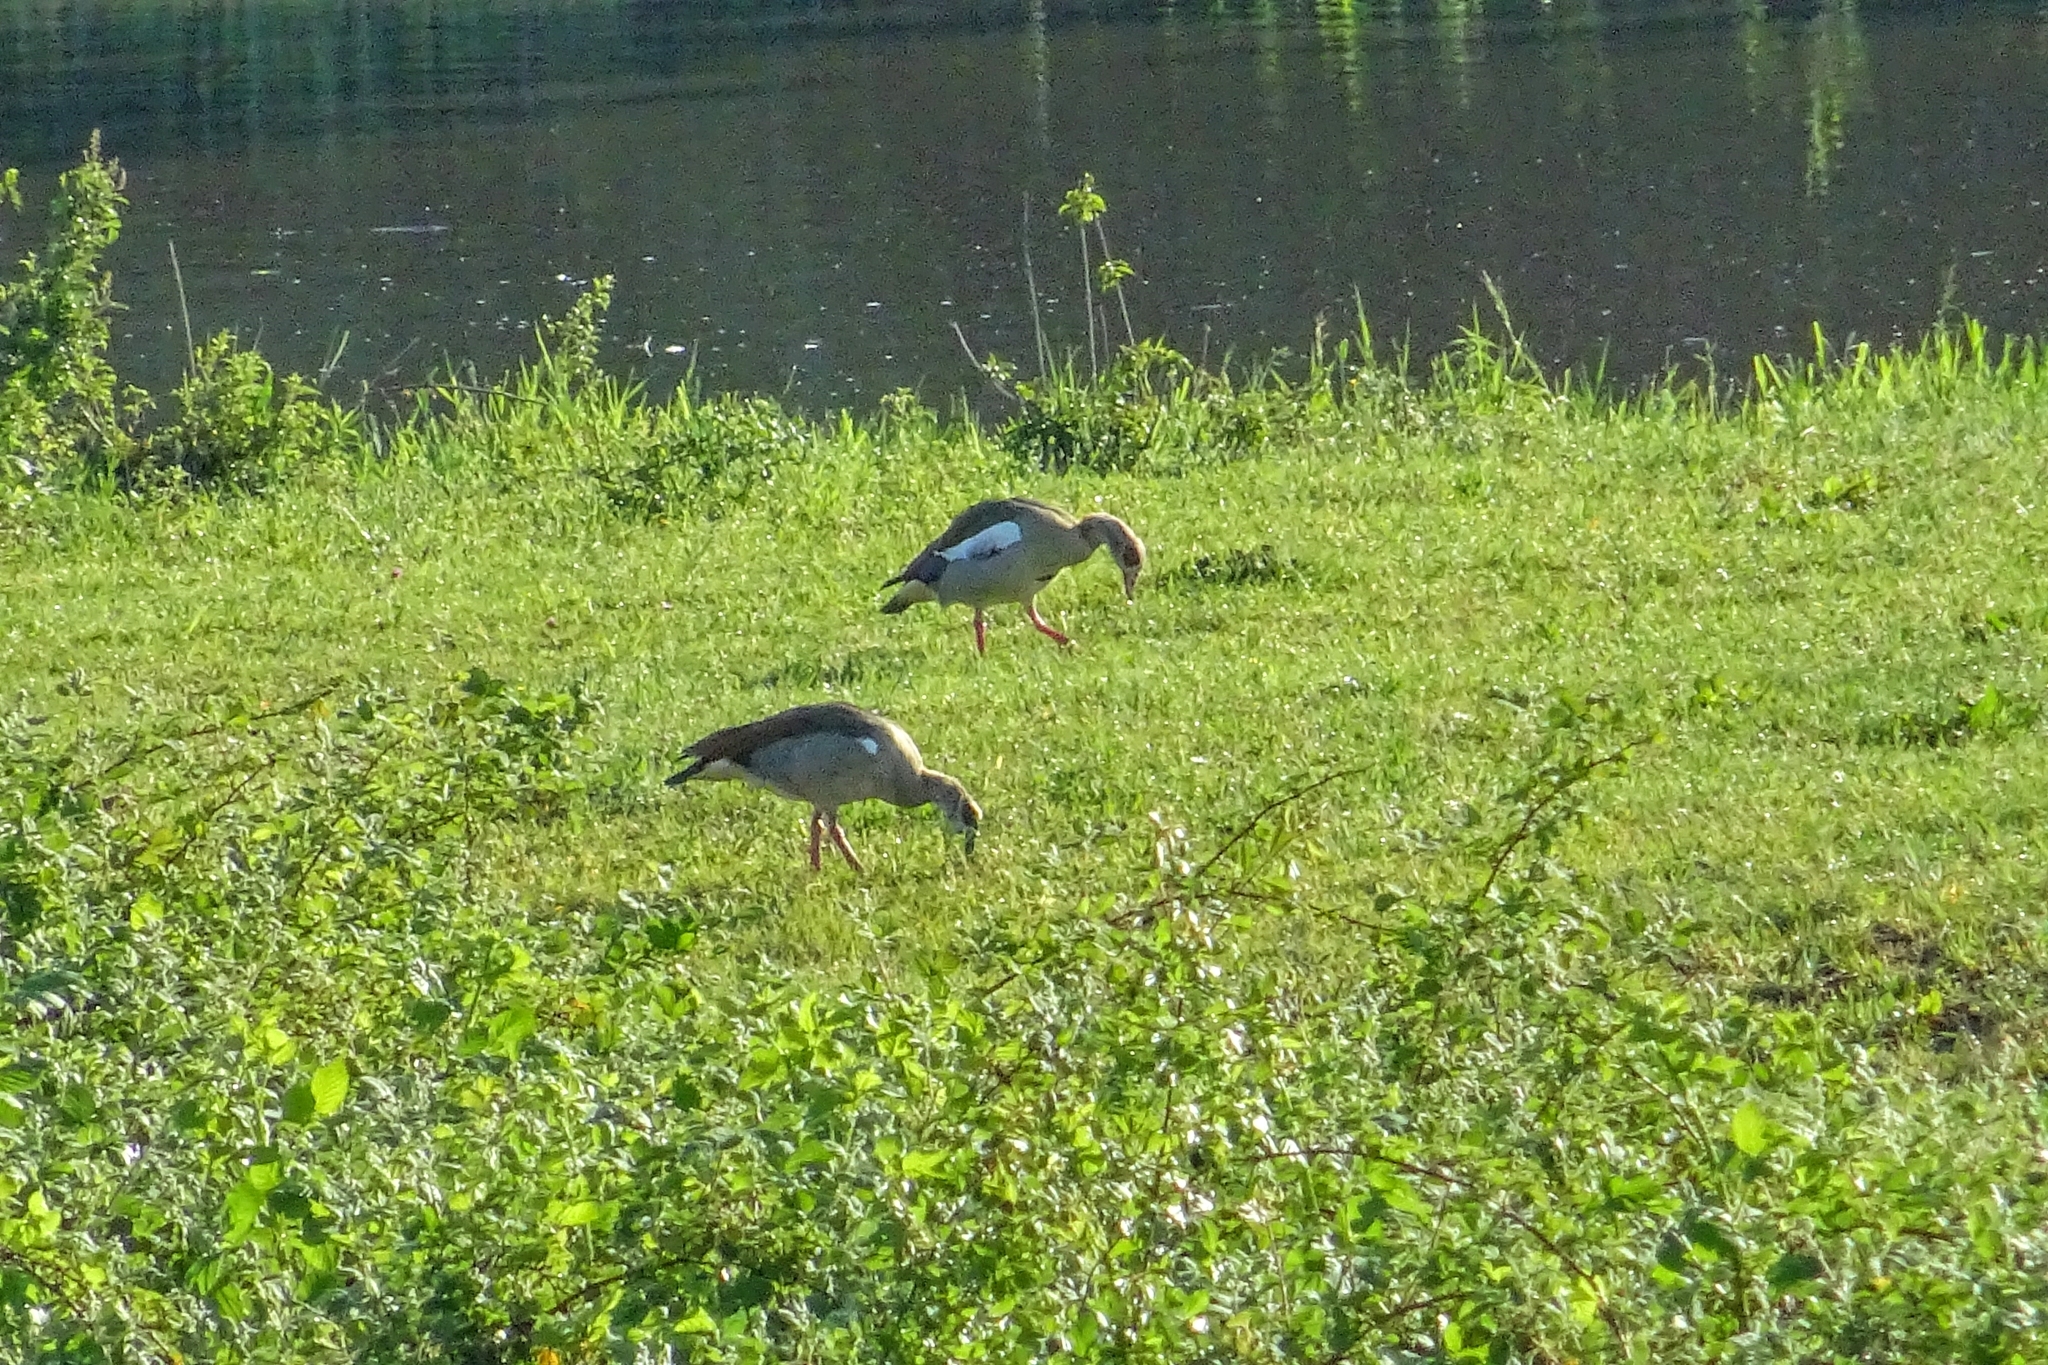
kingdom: Animalia
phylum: Chordata
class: Aves
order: Anseriformes
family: Anatidae
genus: Alopochen
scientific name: Alopochen aegyptiaca
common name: Egyptian goose
